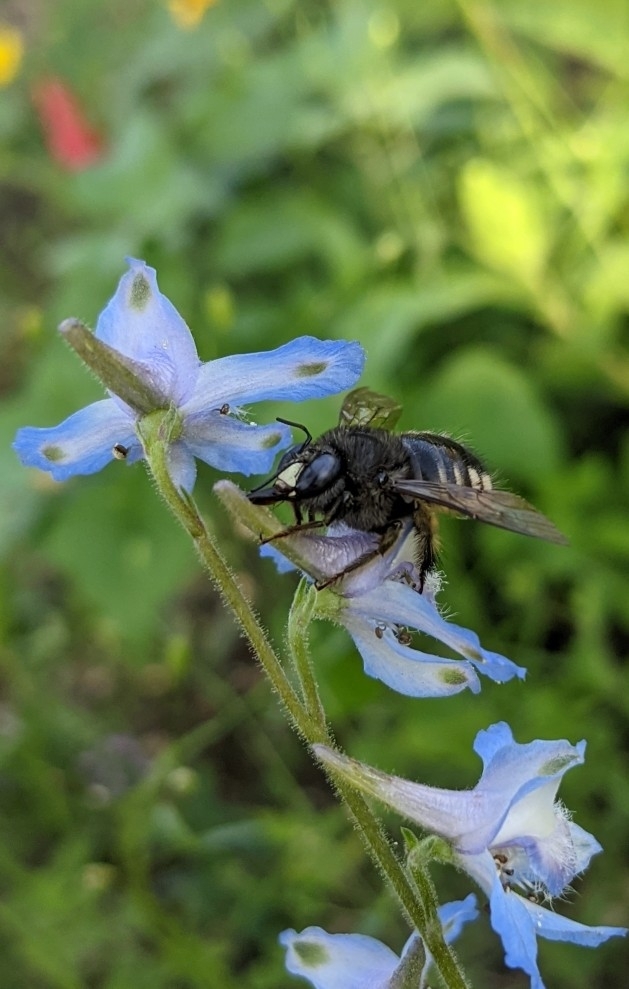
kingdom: Animalia
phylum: Arthropoda
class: Insecta
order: Hymenoptera
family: Apidae
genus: Xylocopa
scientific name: Xylocopa tabaniformis
